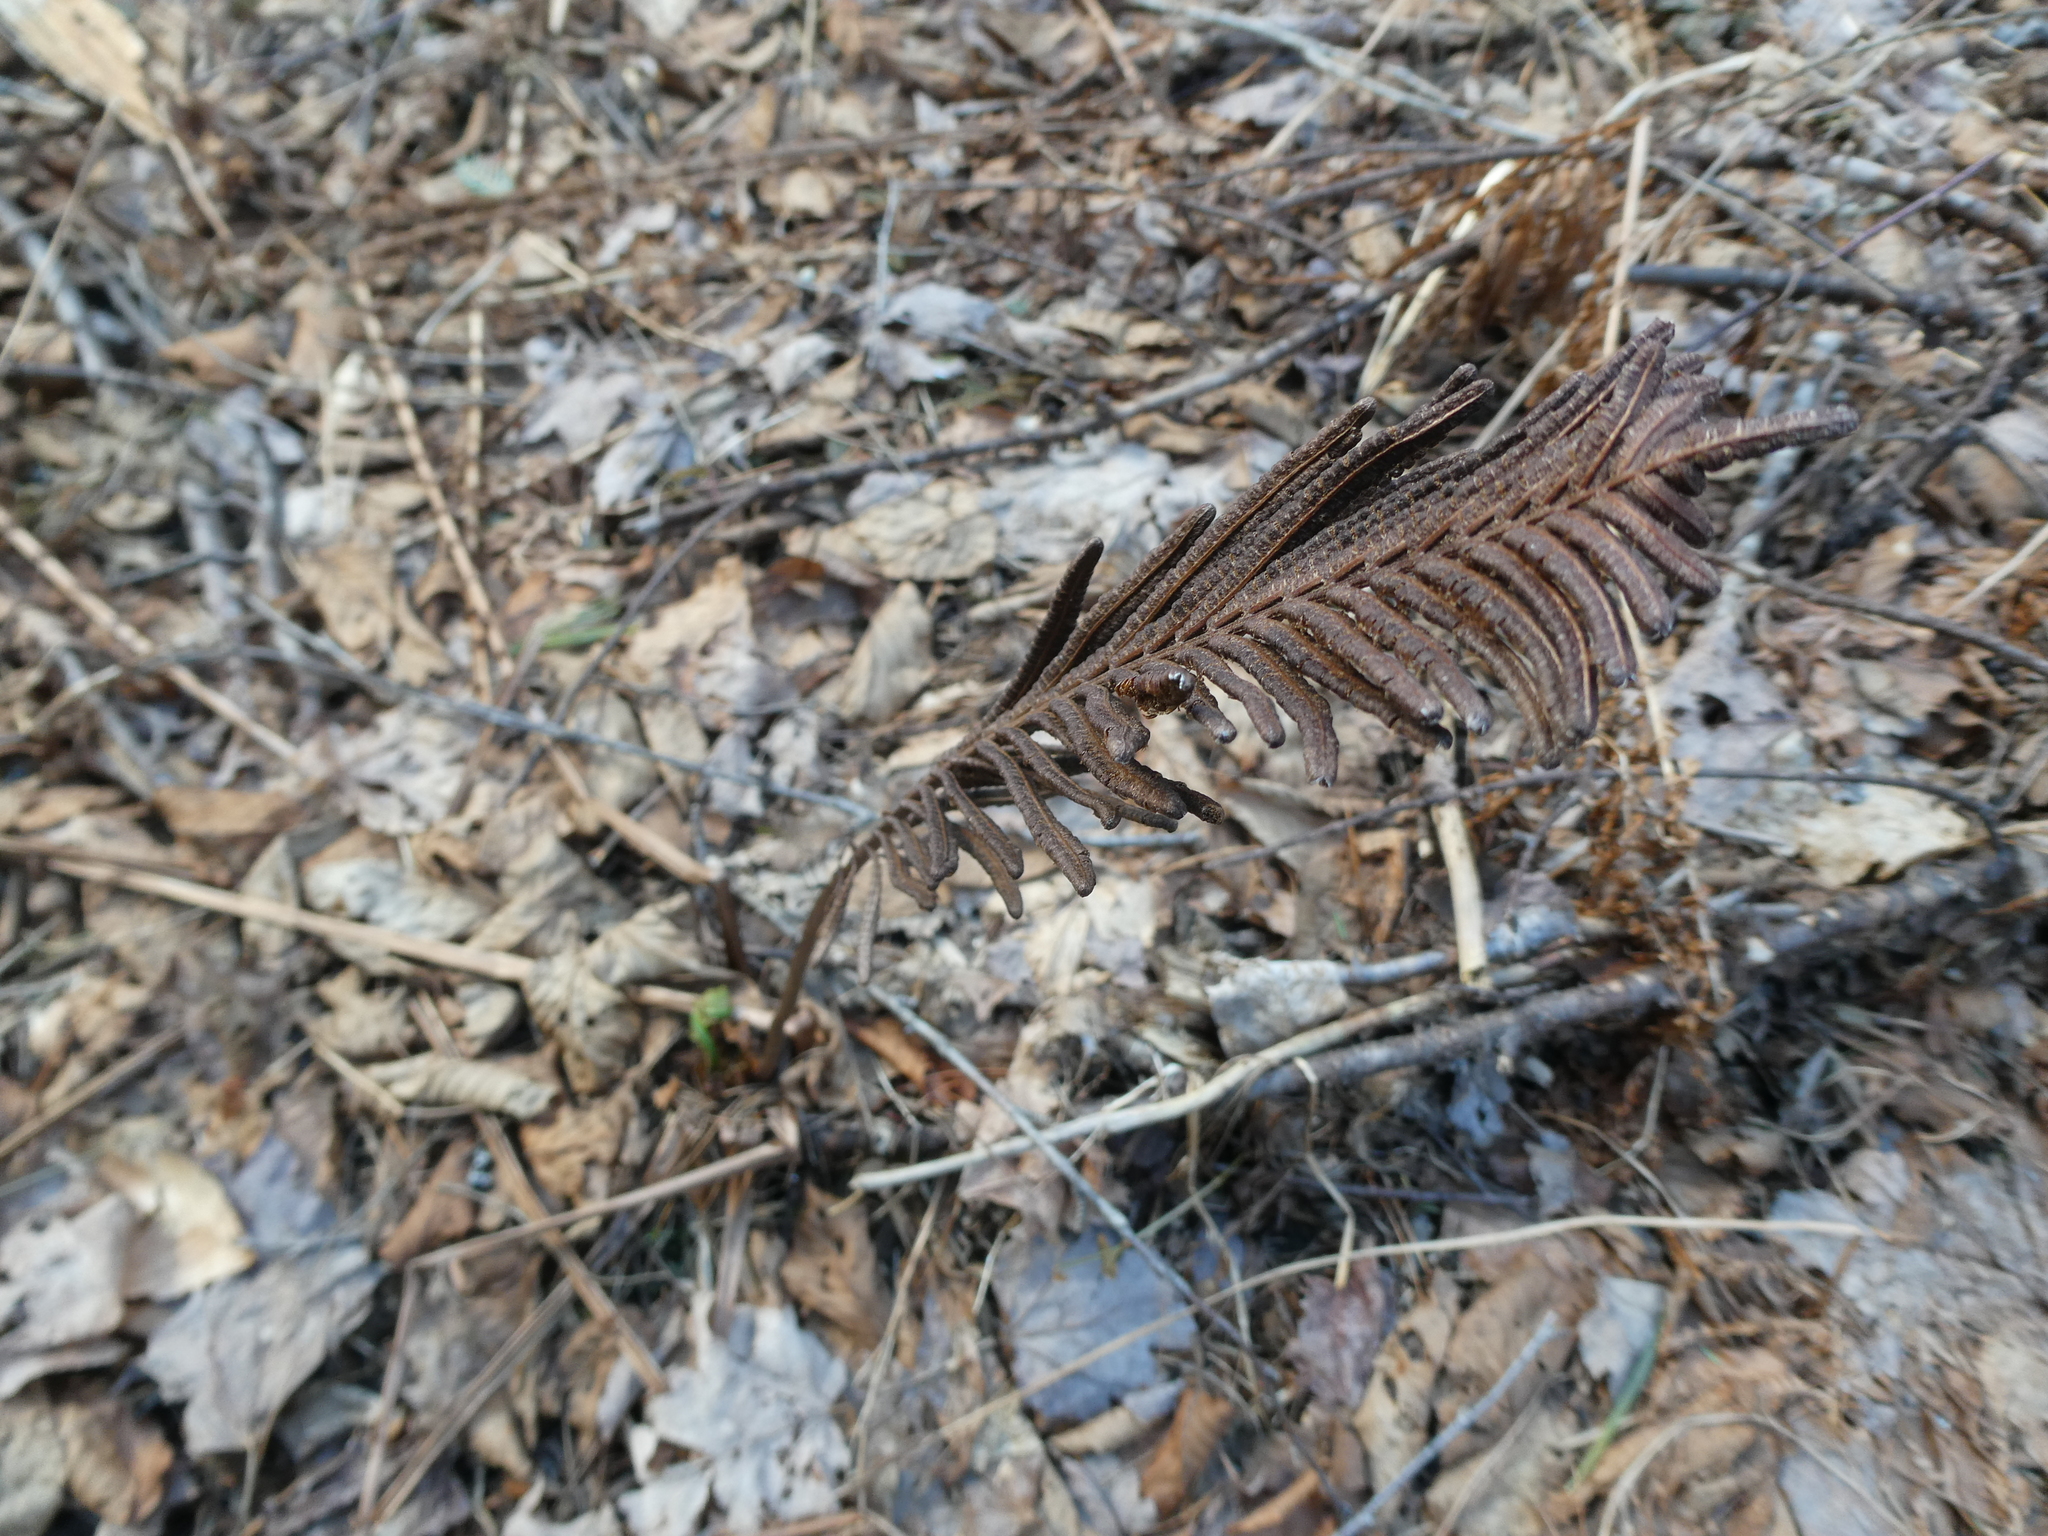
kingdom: Plantae
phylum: Tracheophyta
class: Polypodiopsida
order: Polypodiales
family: Onocleaceae
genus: Matteuccia
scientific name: Matteuccia struthiopteris
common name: Ostrich fern
